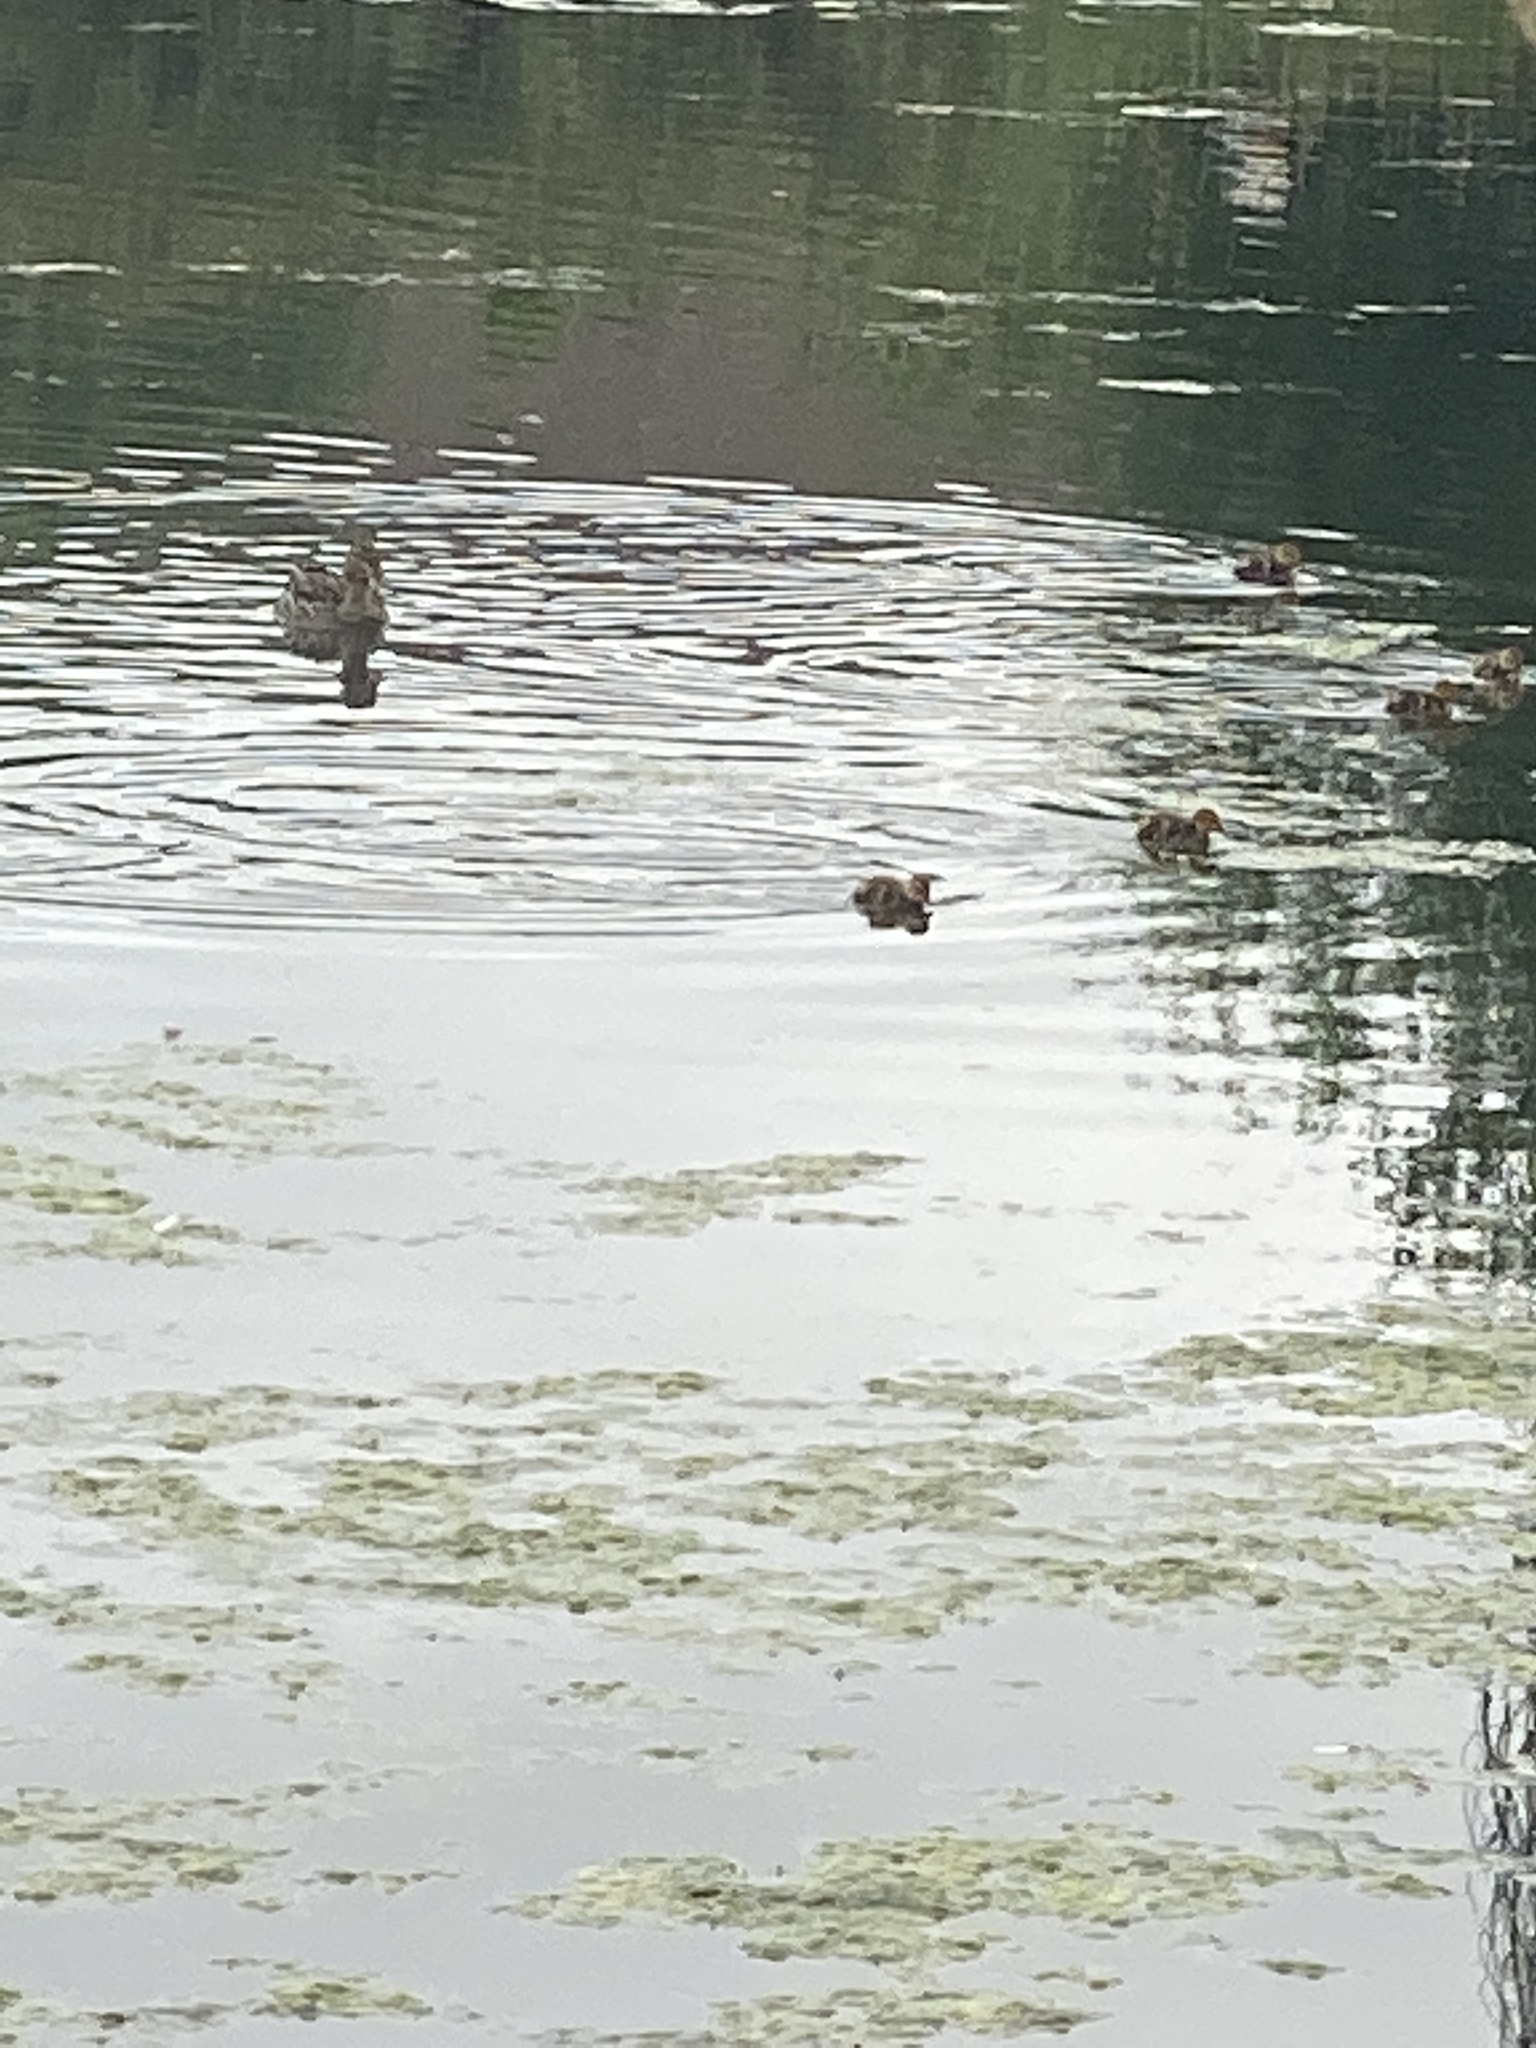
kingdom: Animalia
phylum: Chordata
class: Aves
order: Anseriformes
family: Anatidae
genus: Anas
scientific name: Anas platyrhynchos
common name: Mallard
